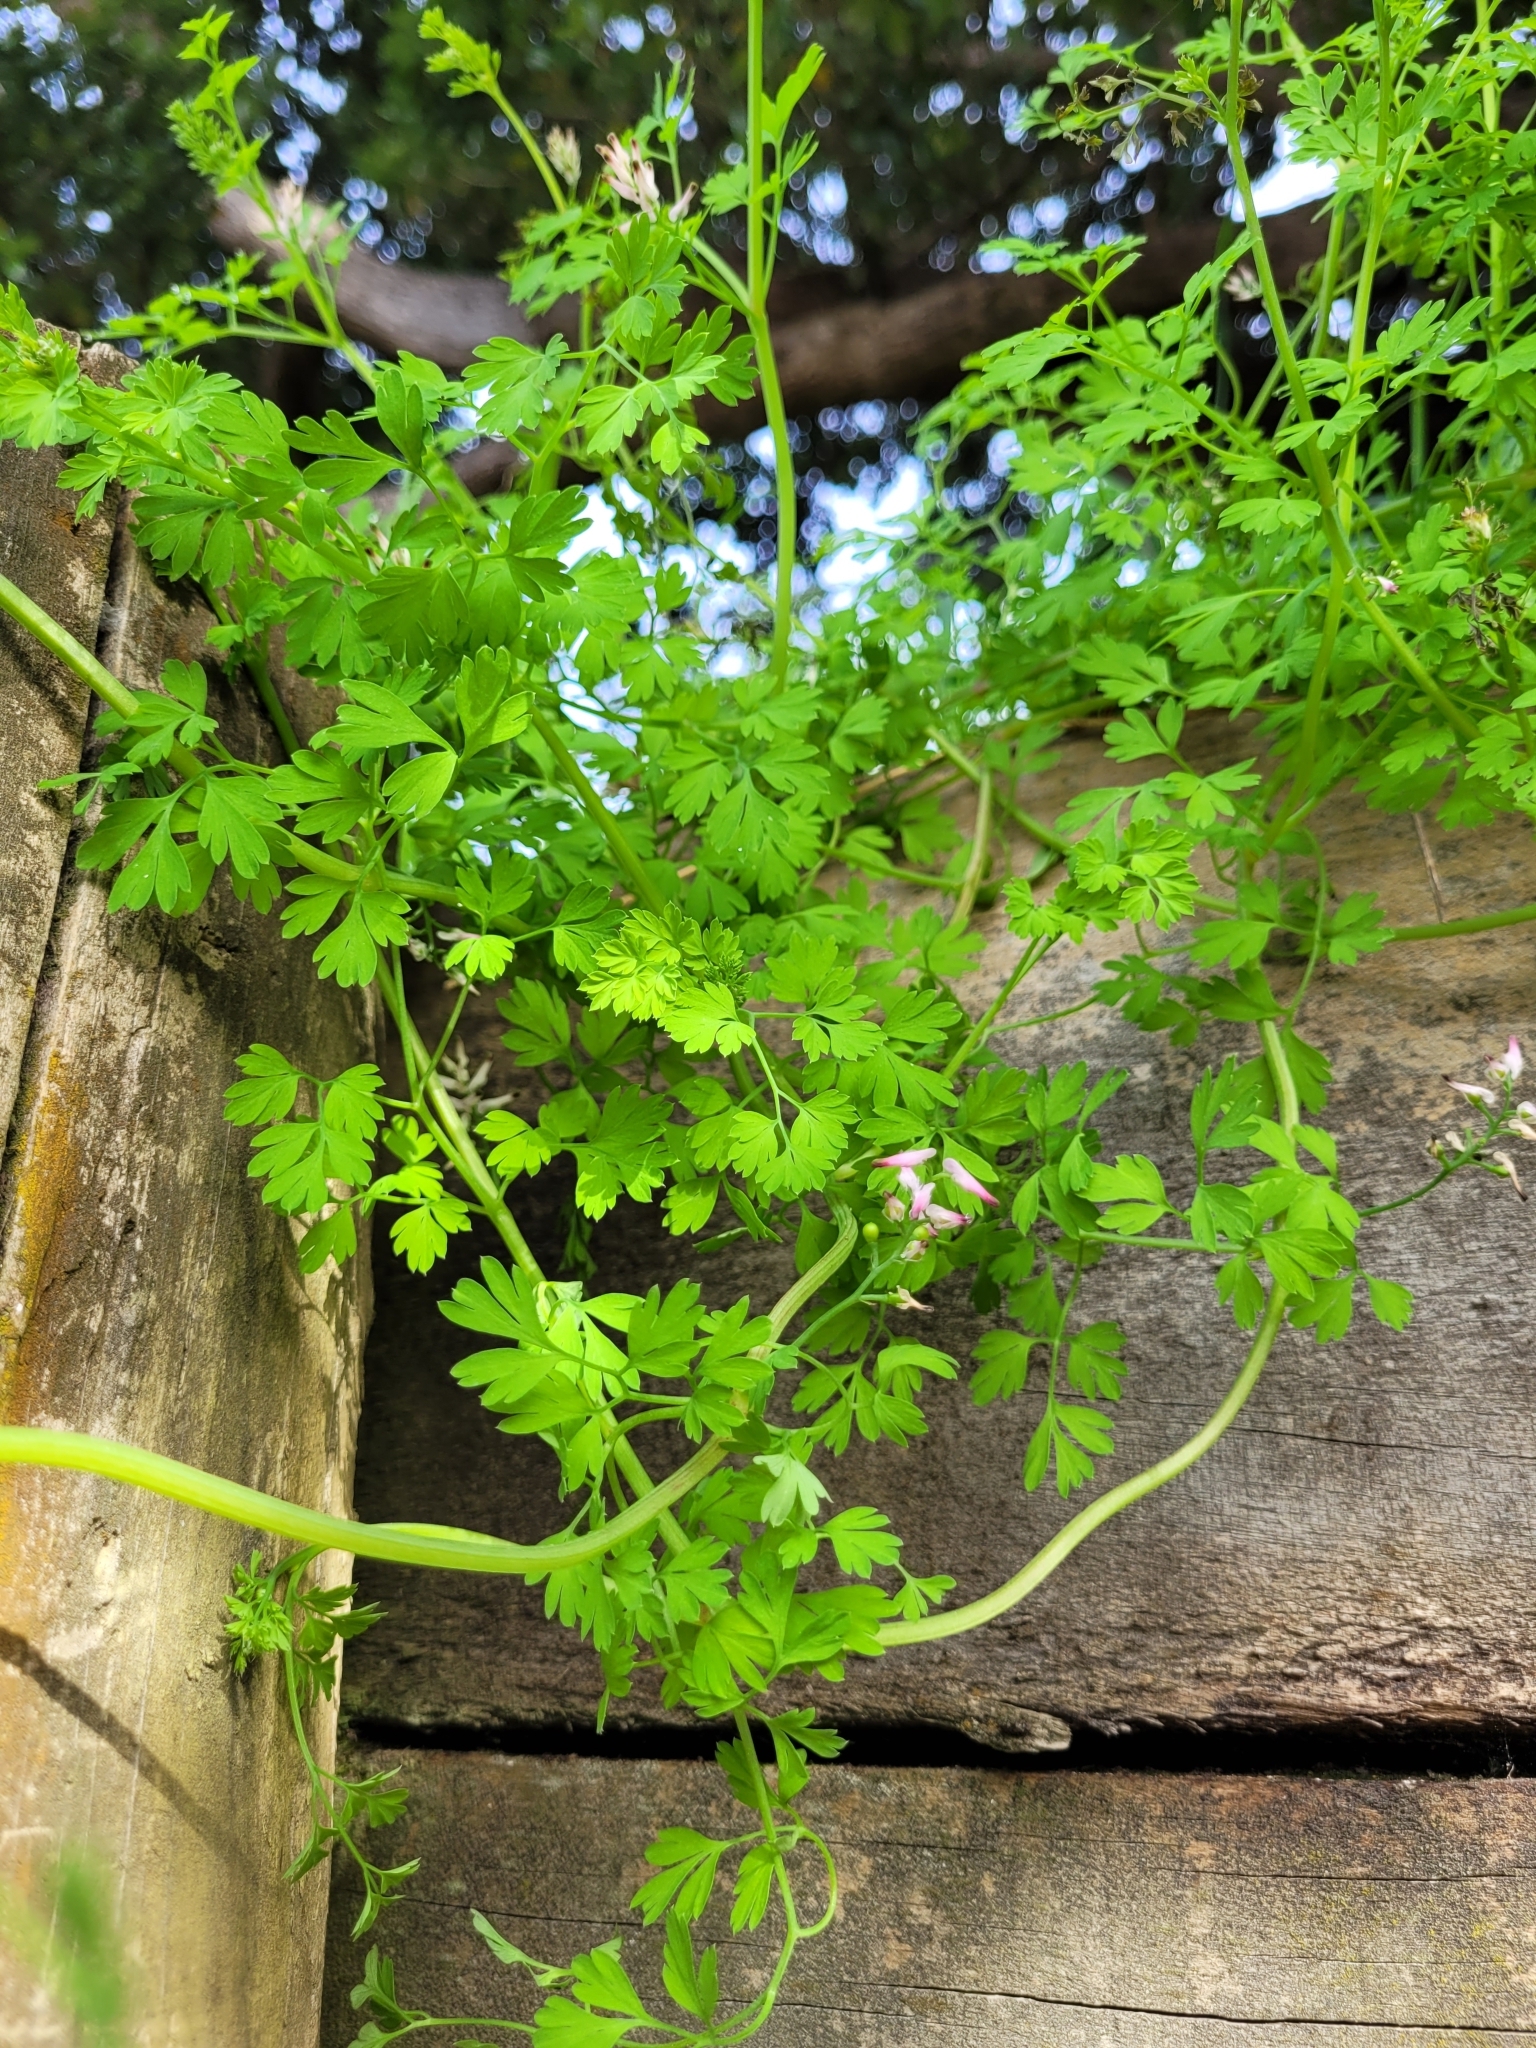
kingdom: Plantae
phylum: Tracheophyta
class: Magnoliopsida
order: Ranunculales
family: Papaveraceae
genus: Fumaria
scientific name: Fumaria muralis
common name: Common ramping-fumitory
